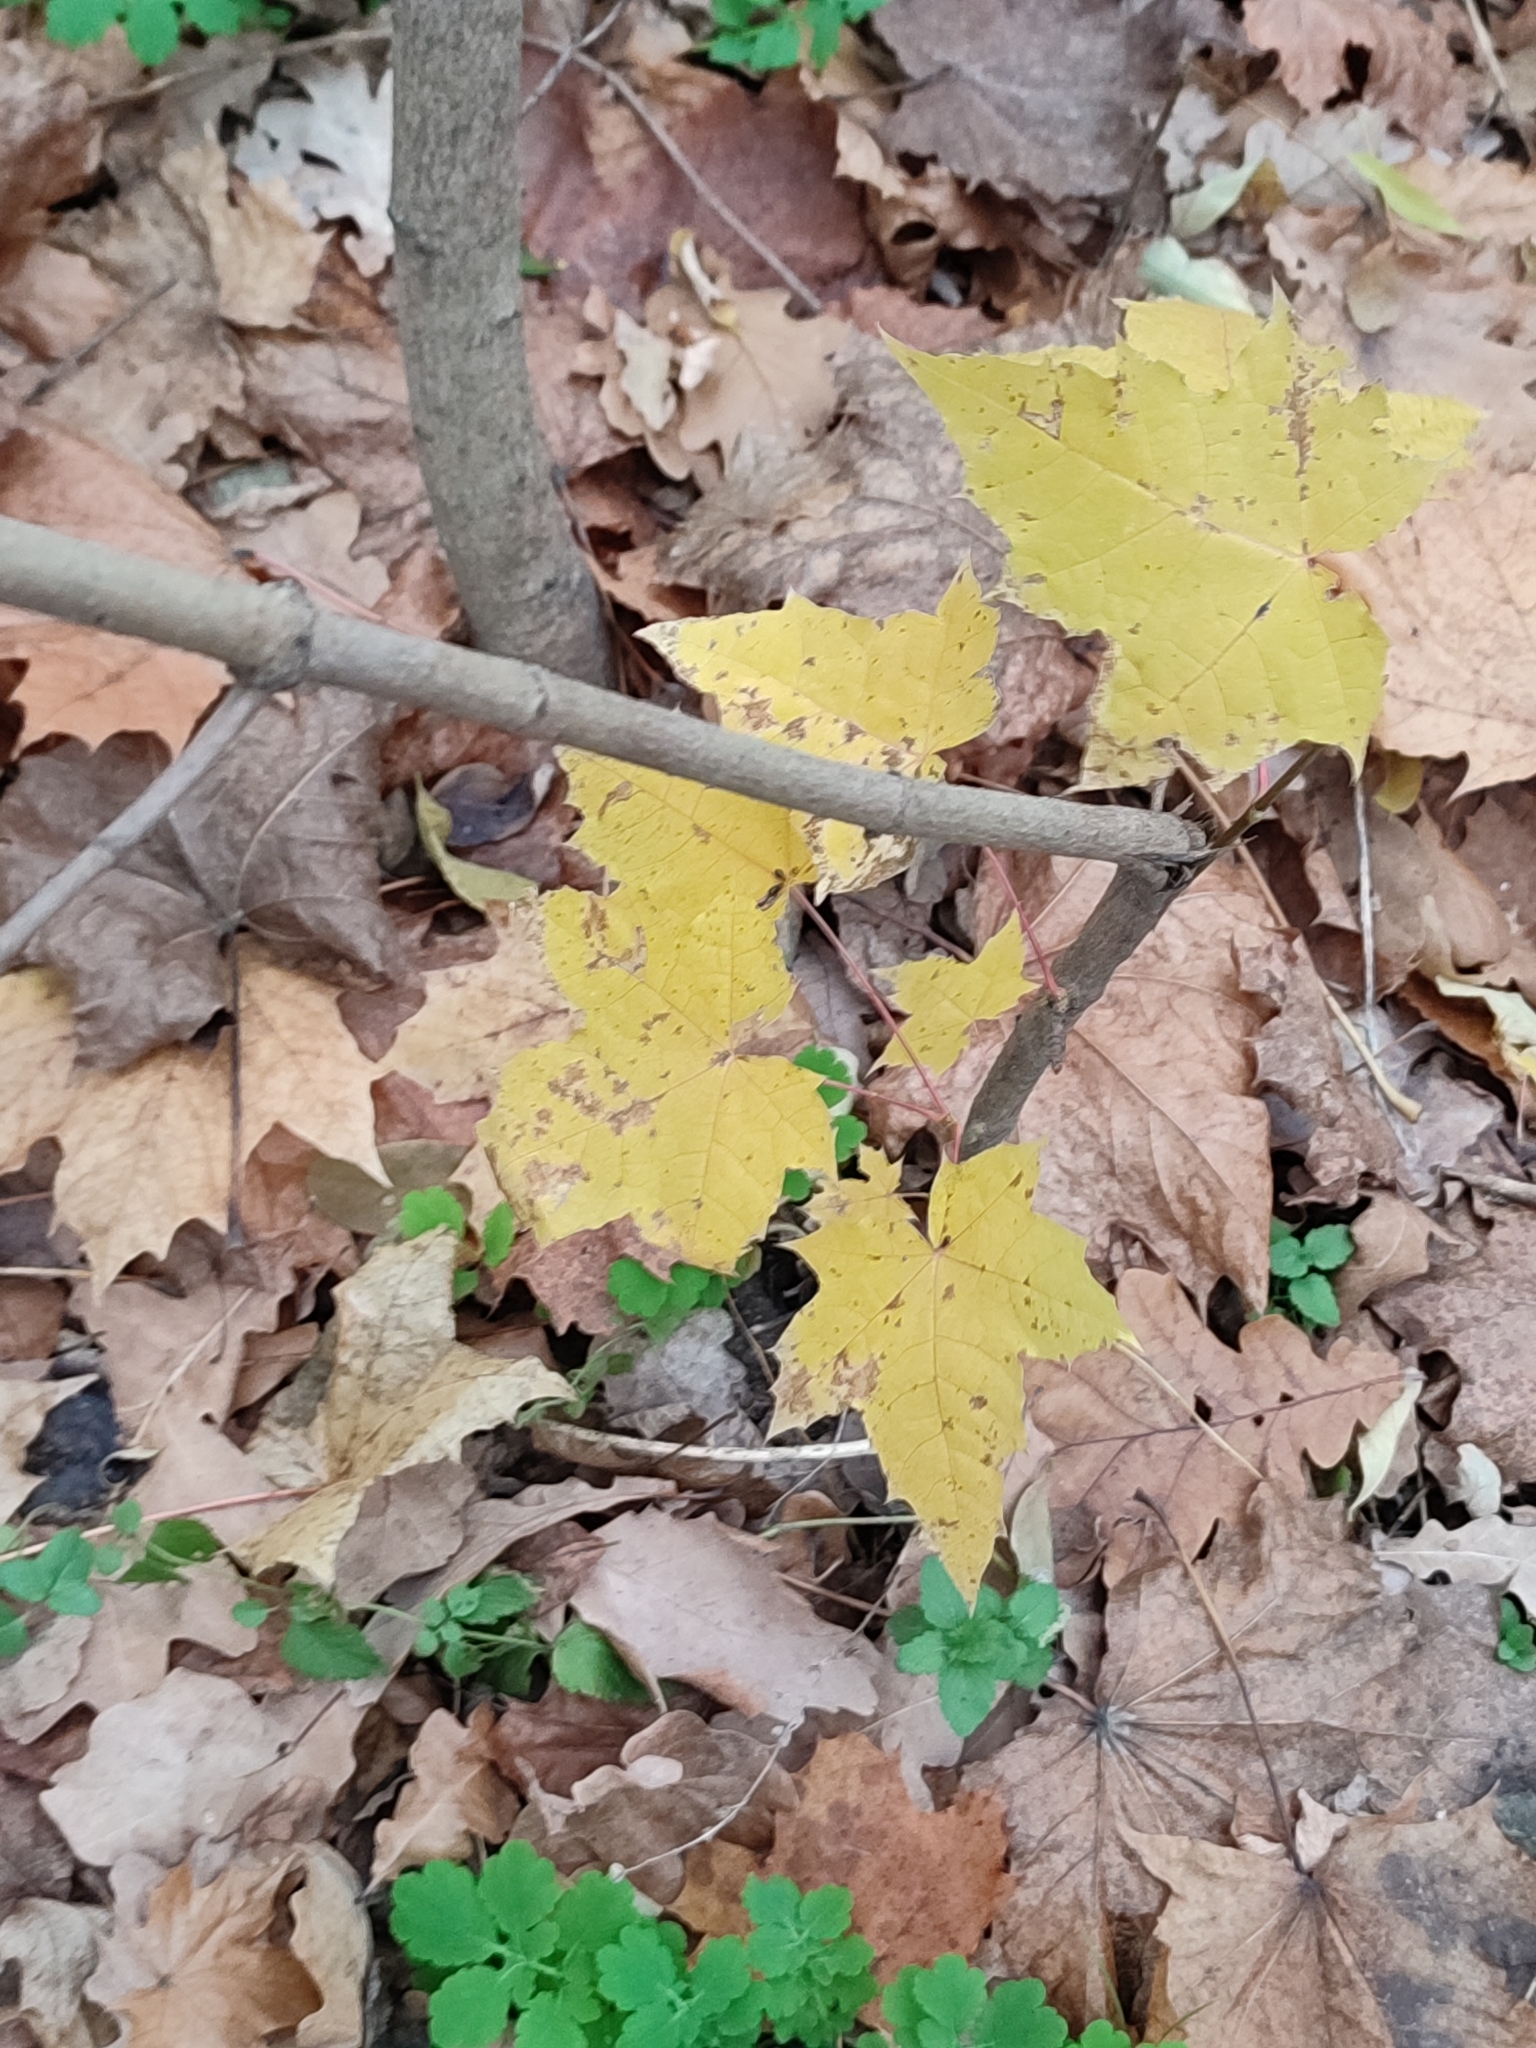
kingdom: Plantae
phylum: Tracheophyta
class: Magnoliopsida
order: Sapindales
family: Sapindaceae
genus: Acer
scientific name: Acer platanoides
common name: Norway maple
